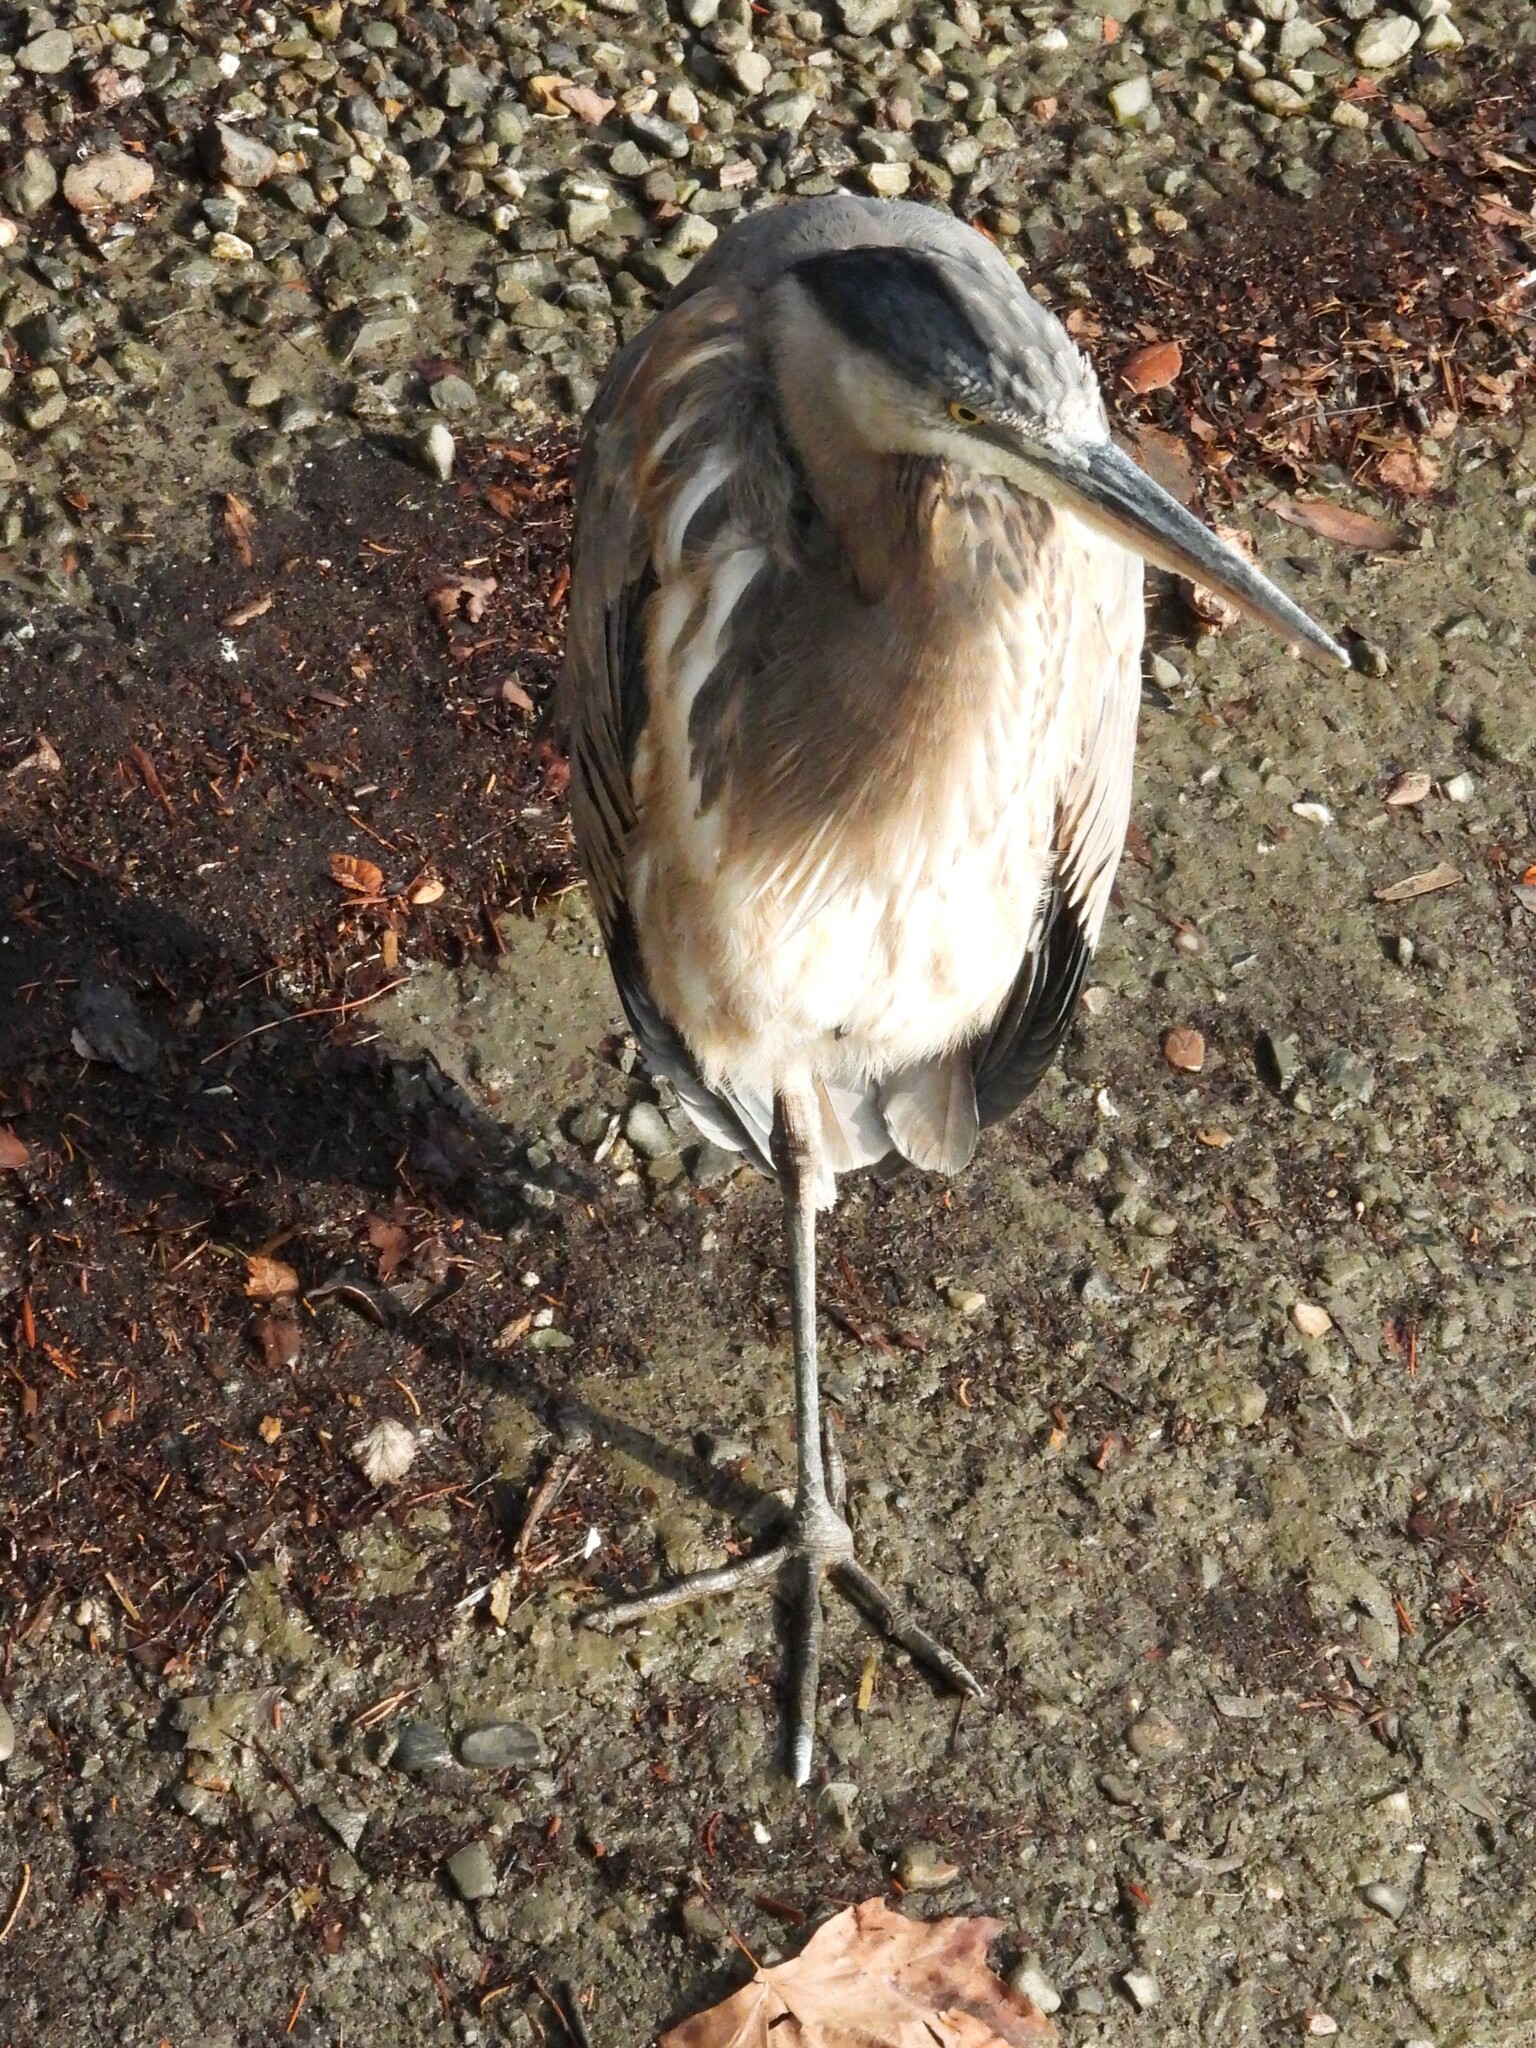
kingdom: Animalia
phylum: Chordata
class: Aves
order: Pelecaniformes
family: Ardeidae
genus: Ardea
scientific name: Ardea herodias
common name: Great blue heron
